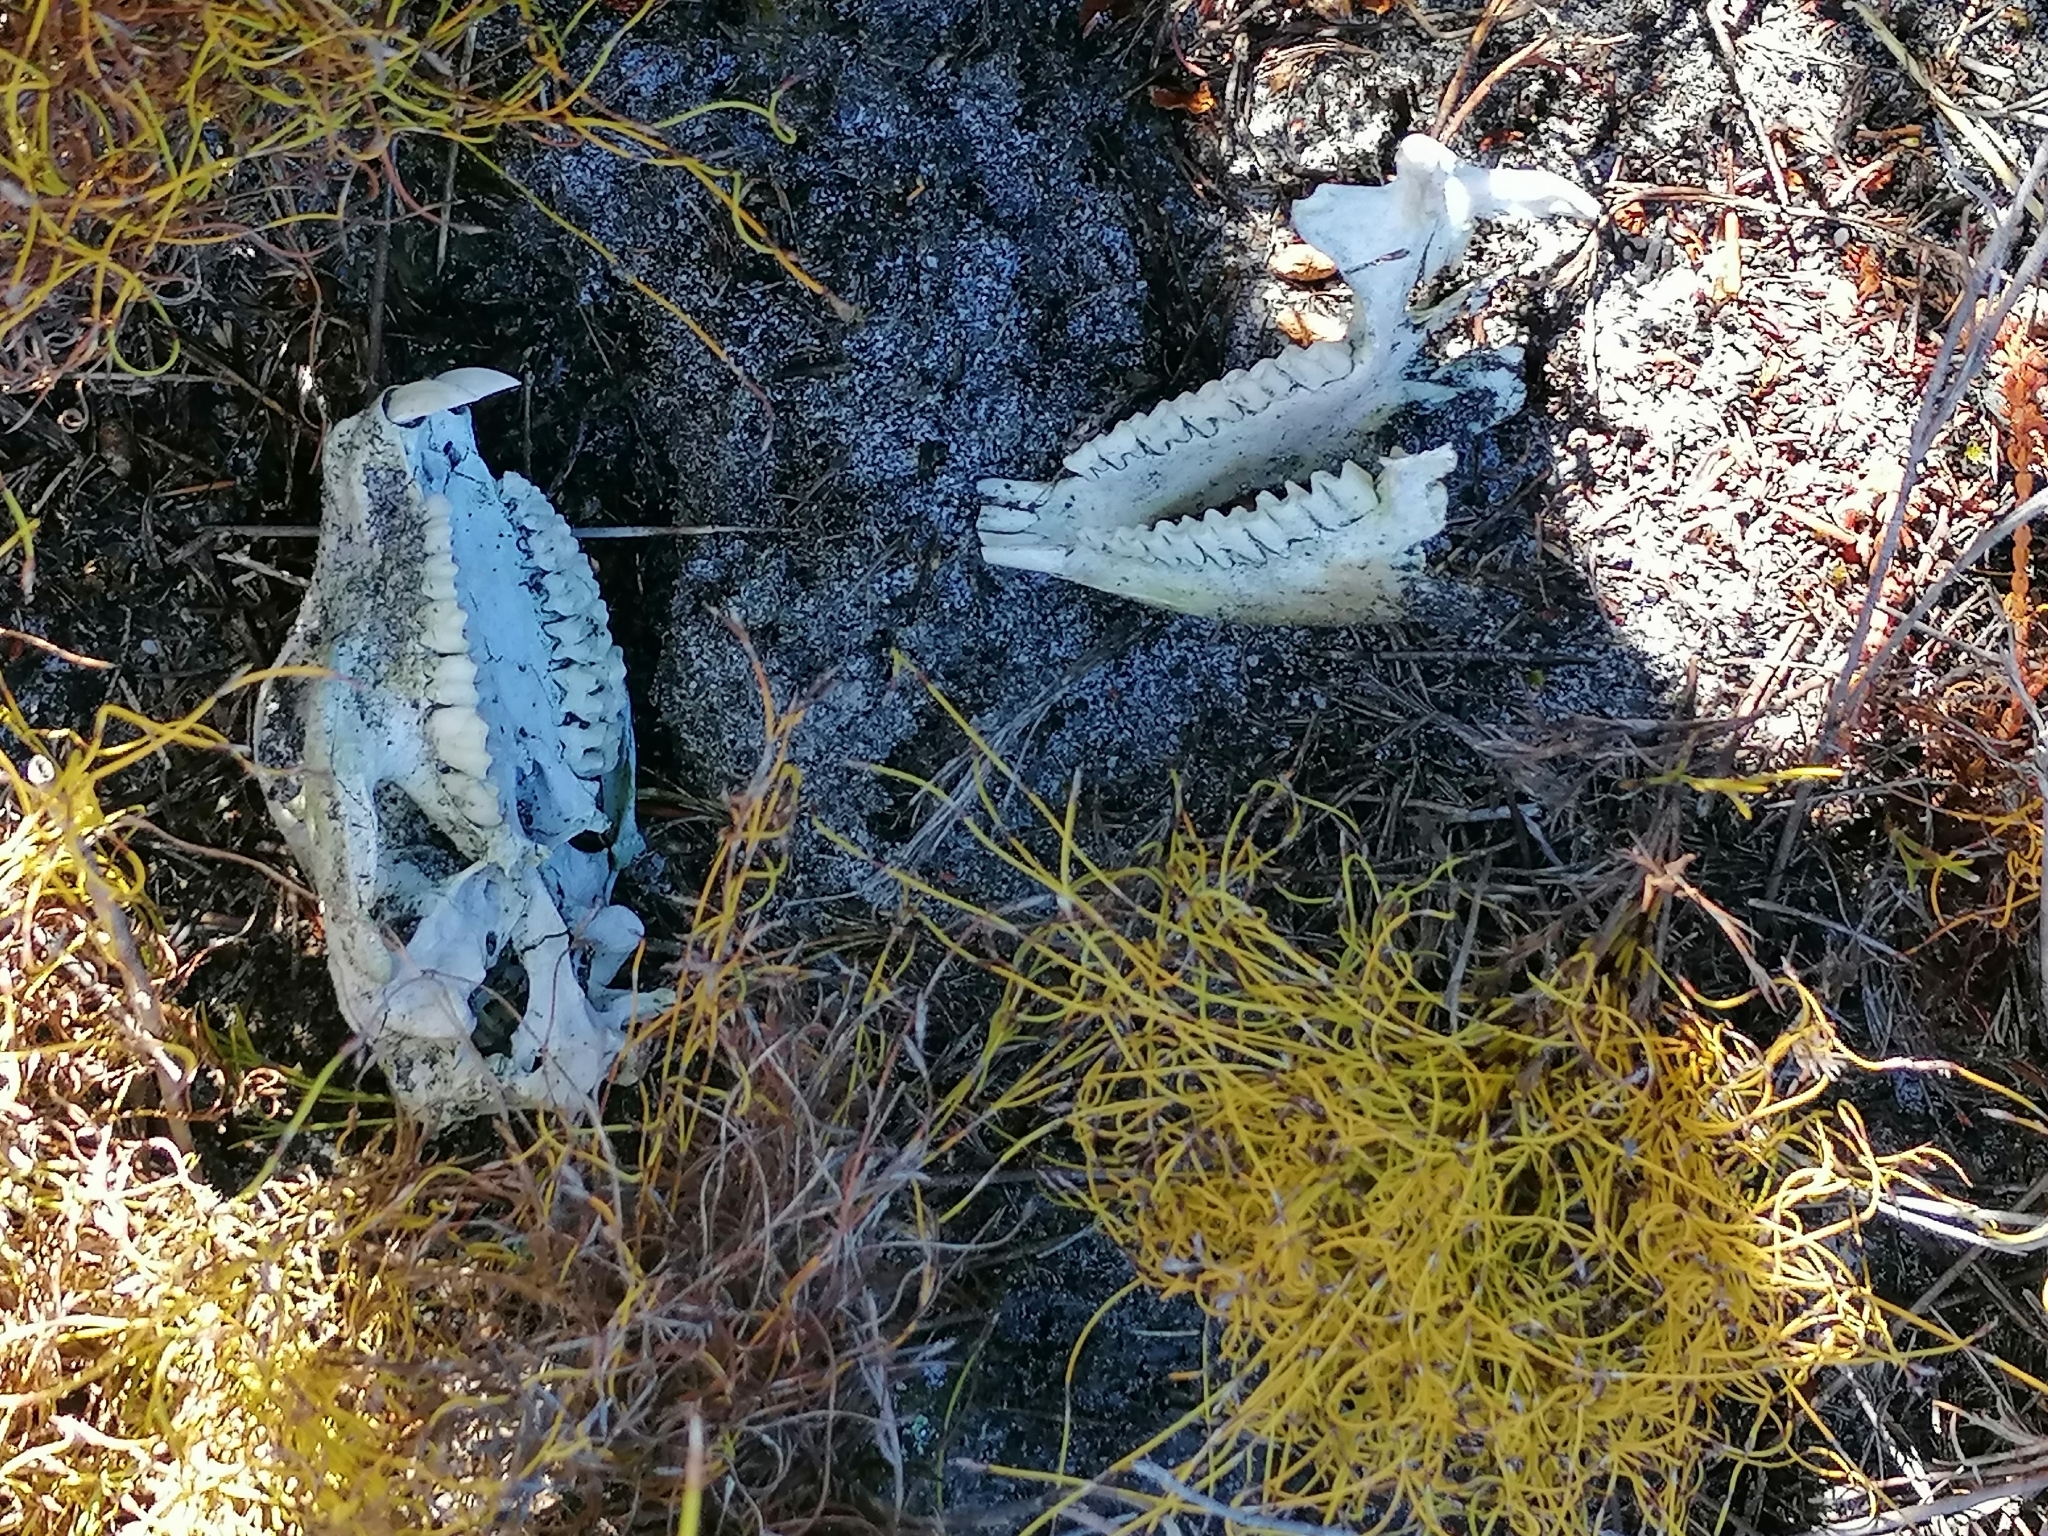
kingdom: Animalia
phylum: Chordata
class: Mammalia
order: Hyracoidea
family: Procaviidae
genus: Procavia
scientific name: Procavia capensis
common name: Rock hyrax
